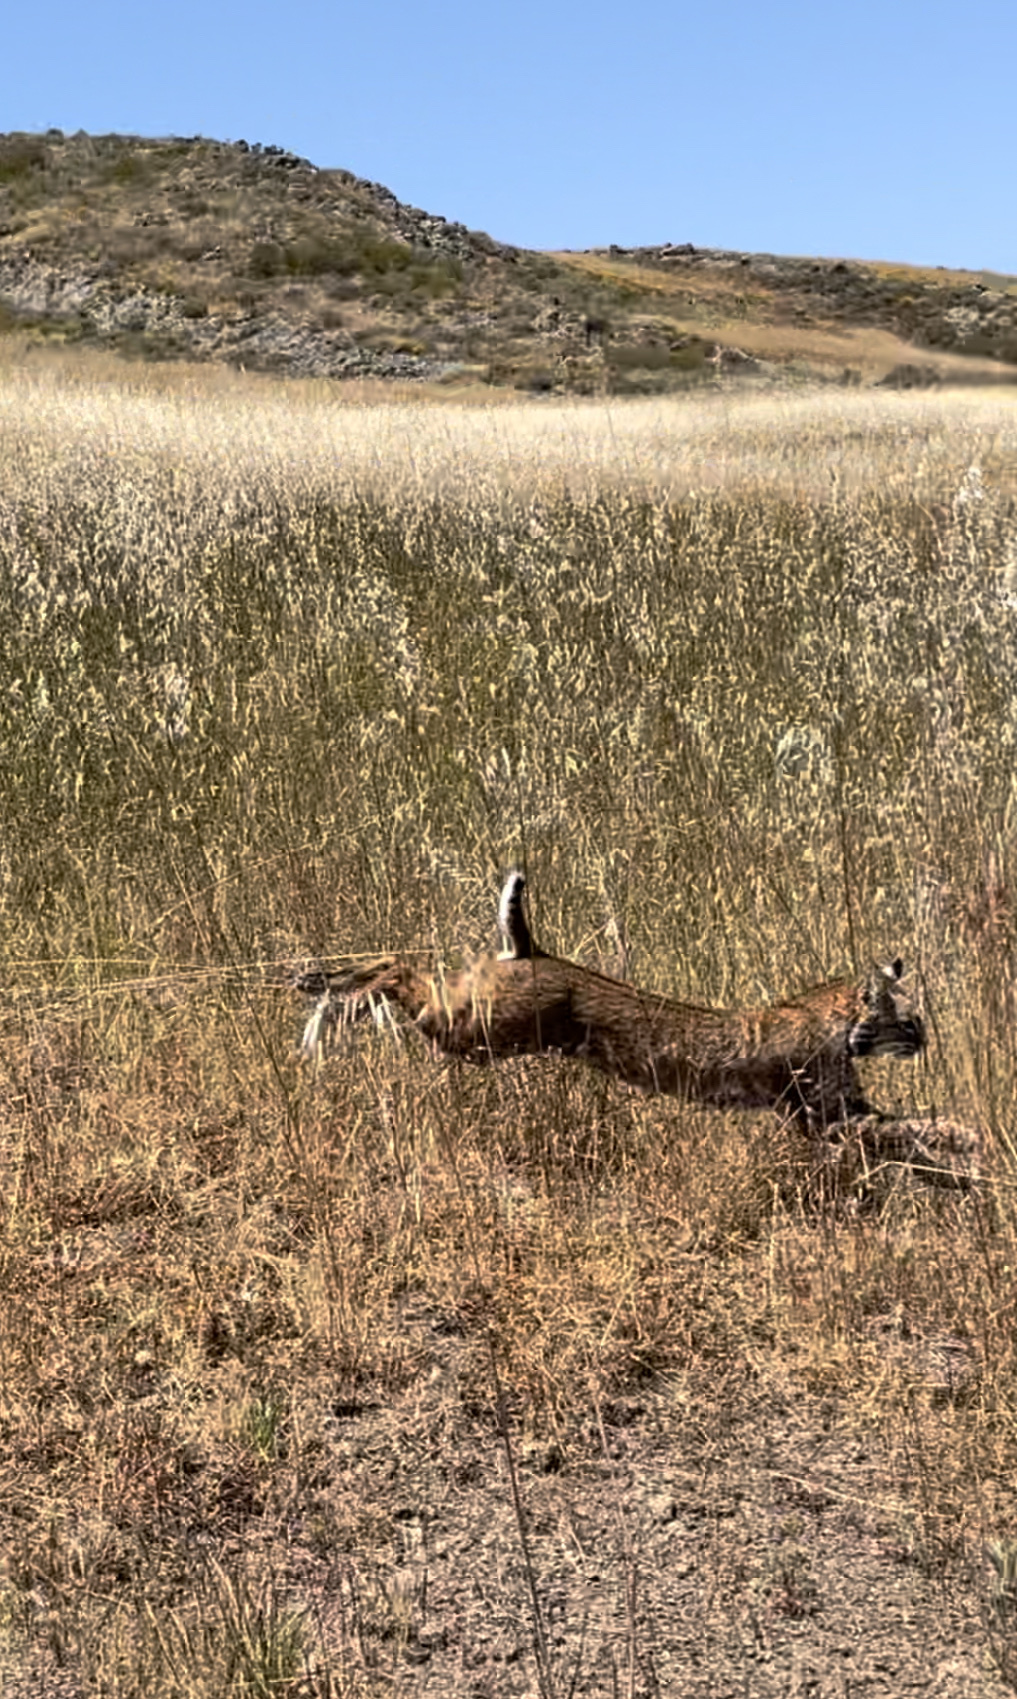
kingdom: Animalia
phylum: Chordata
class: Mammalia
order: Carnivora
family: Felidae
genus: Lynx
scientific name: Lynx rufus
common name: Bobcat
